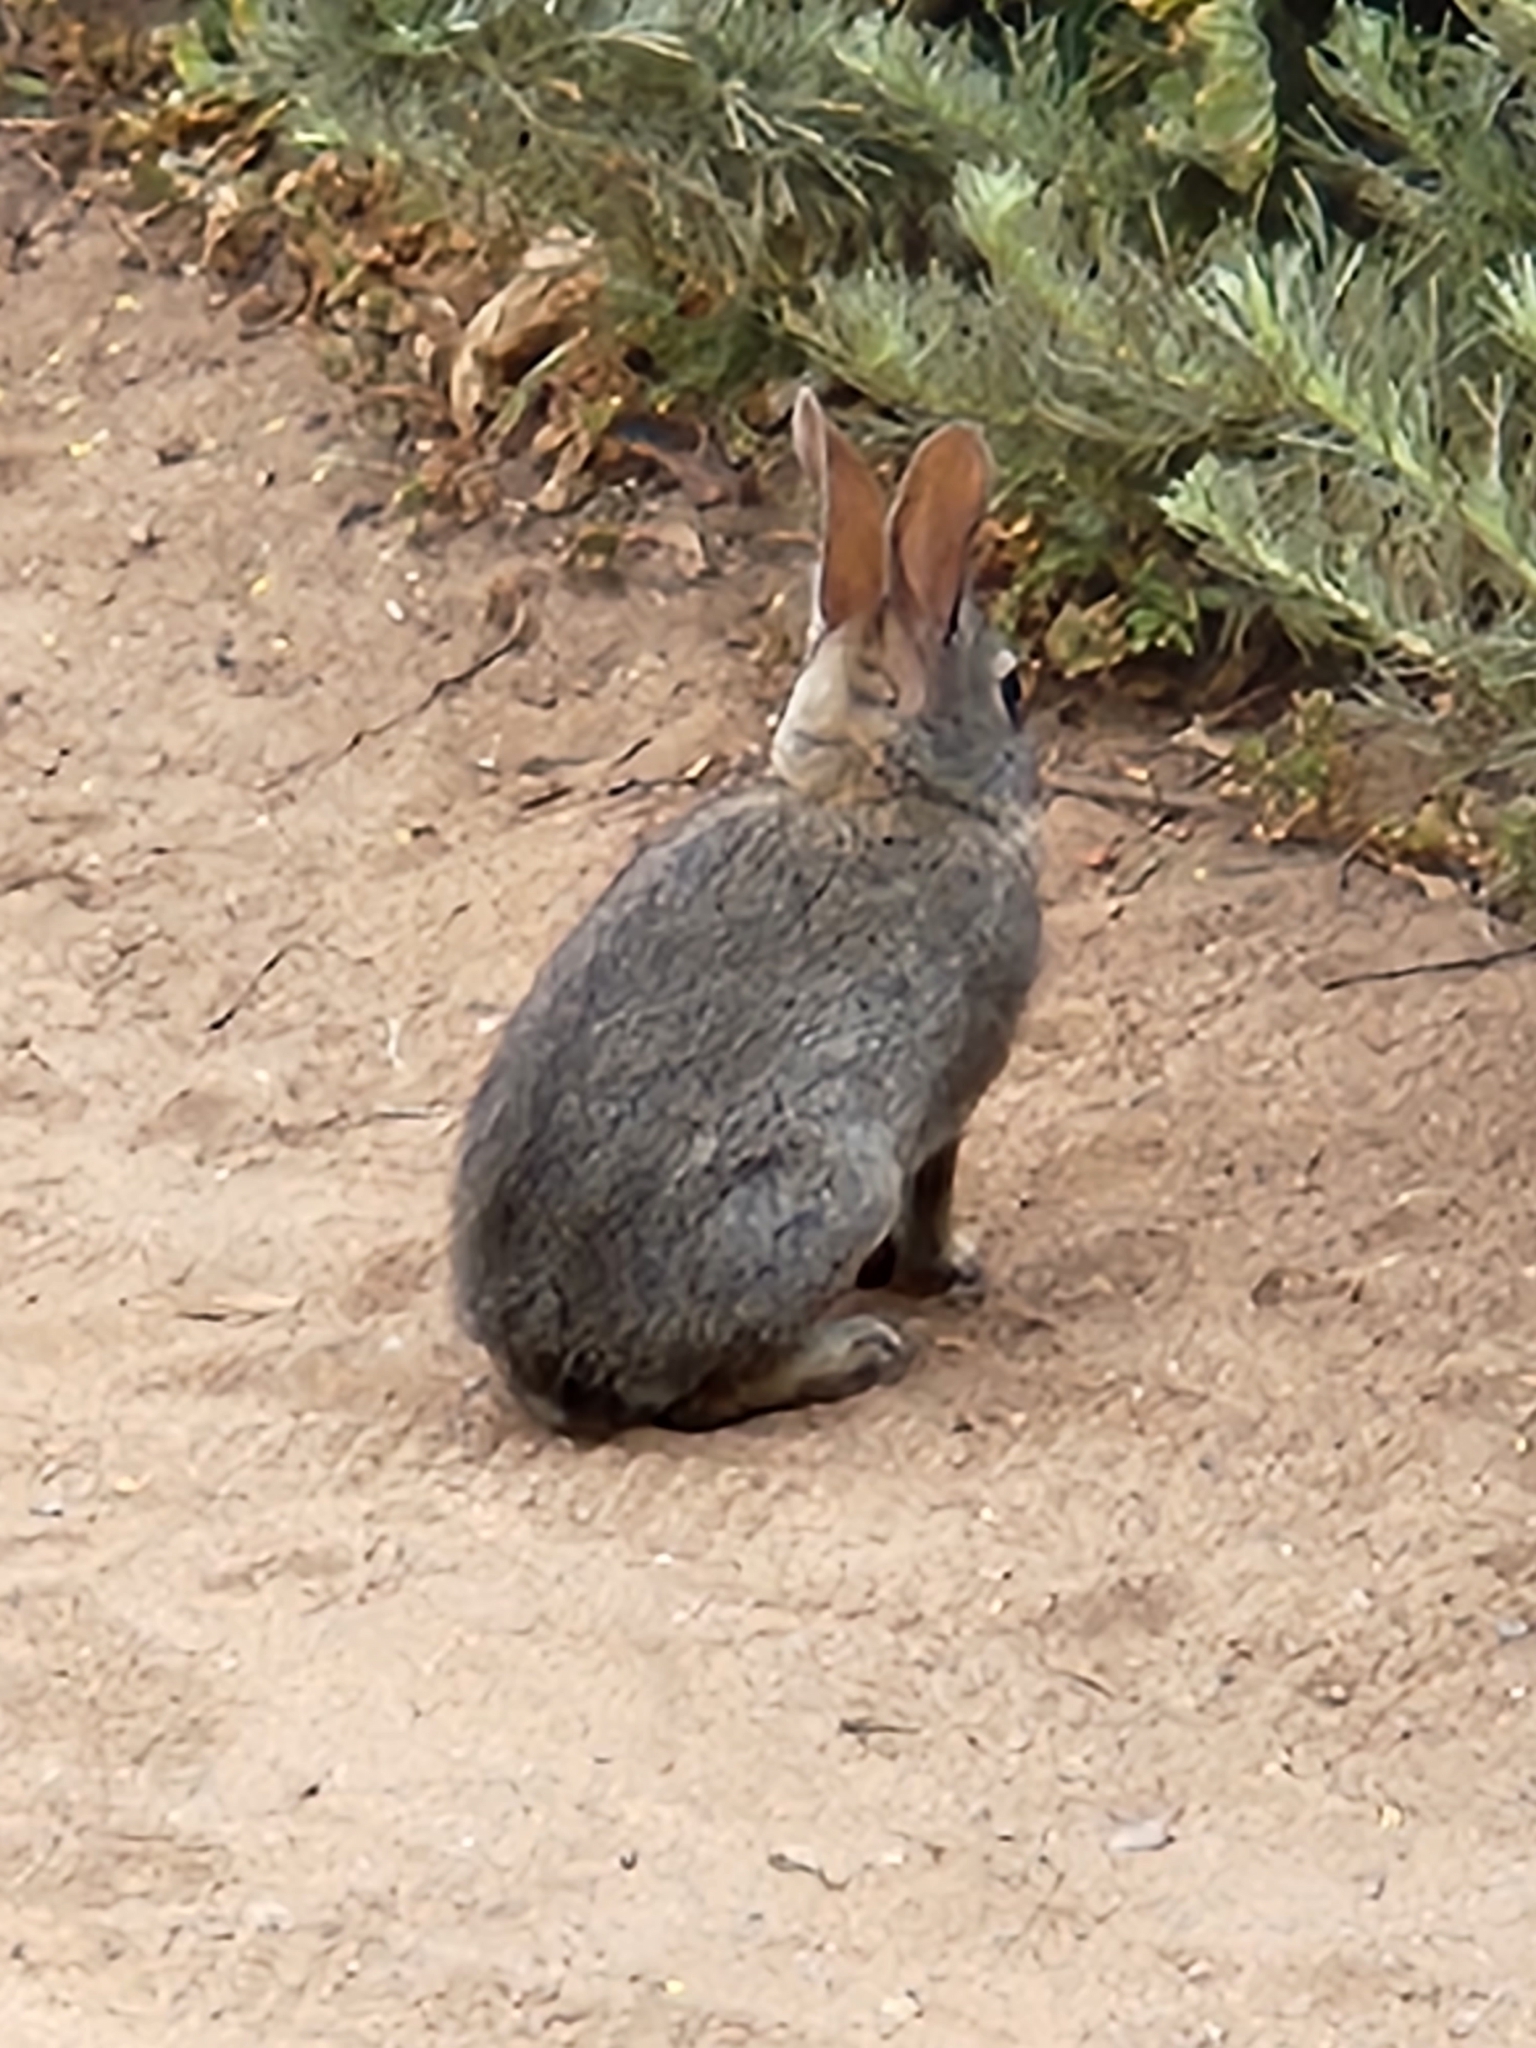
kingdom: Animalia
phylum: Chordata
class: Mammalia
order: Lagomorpha
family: Leporidae
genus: Sylvilagus
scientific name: Sylvilagus bachmani
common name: Brush rabbit
